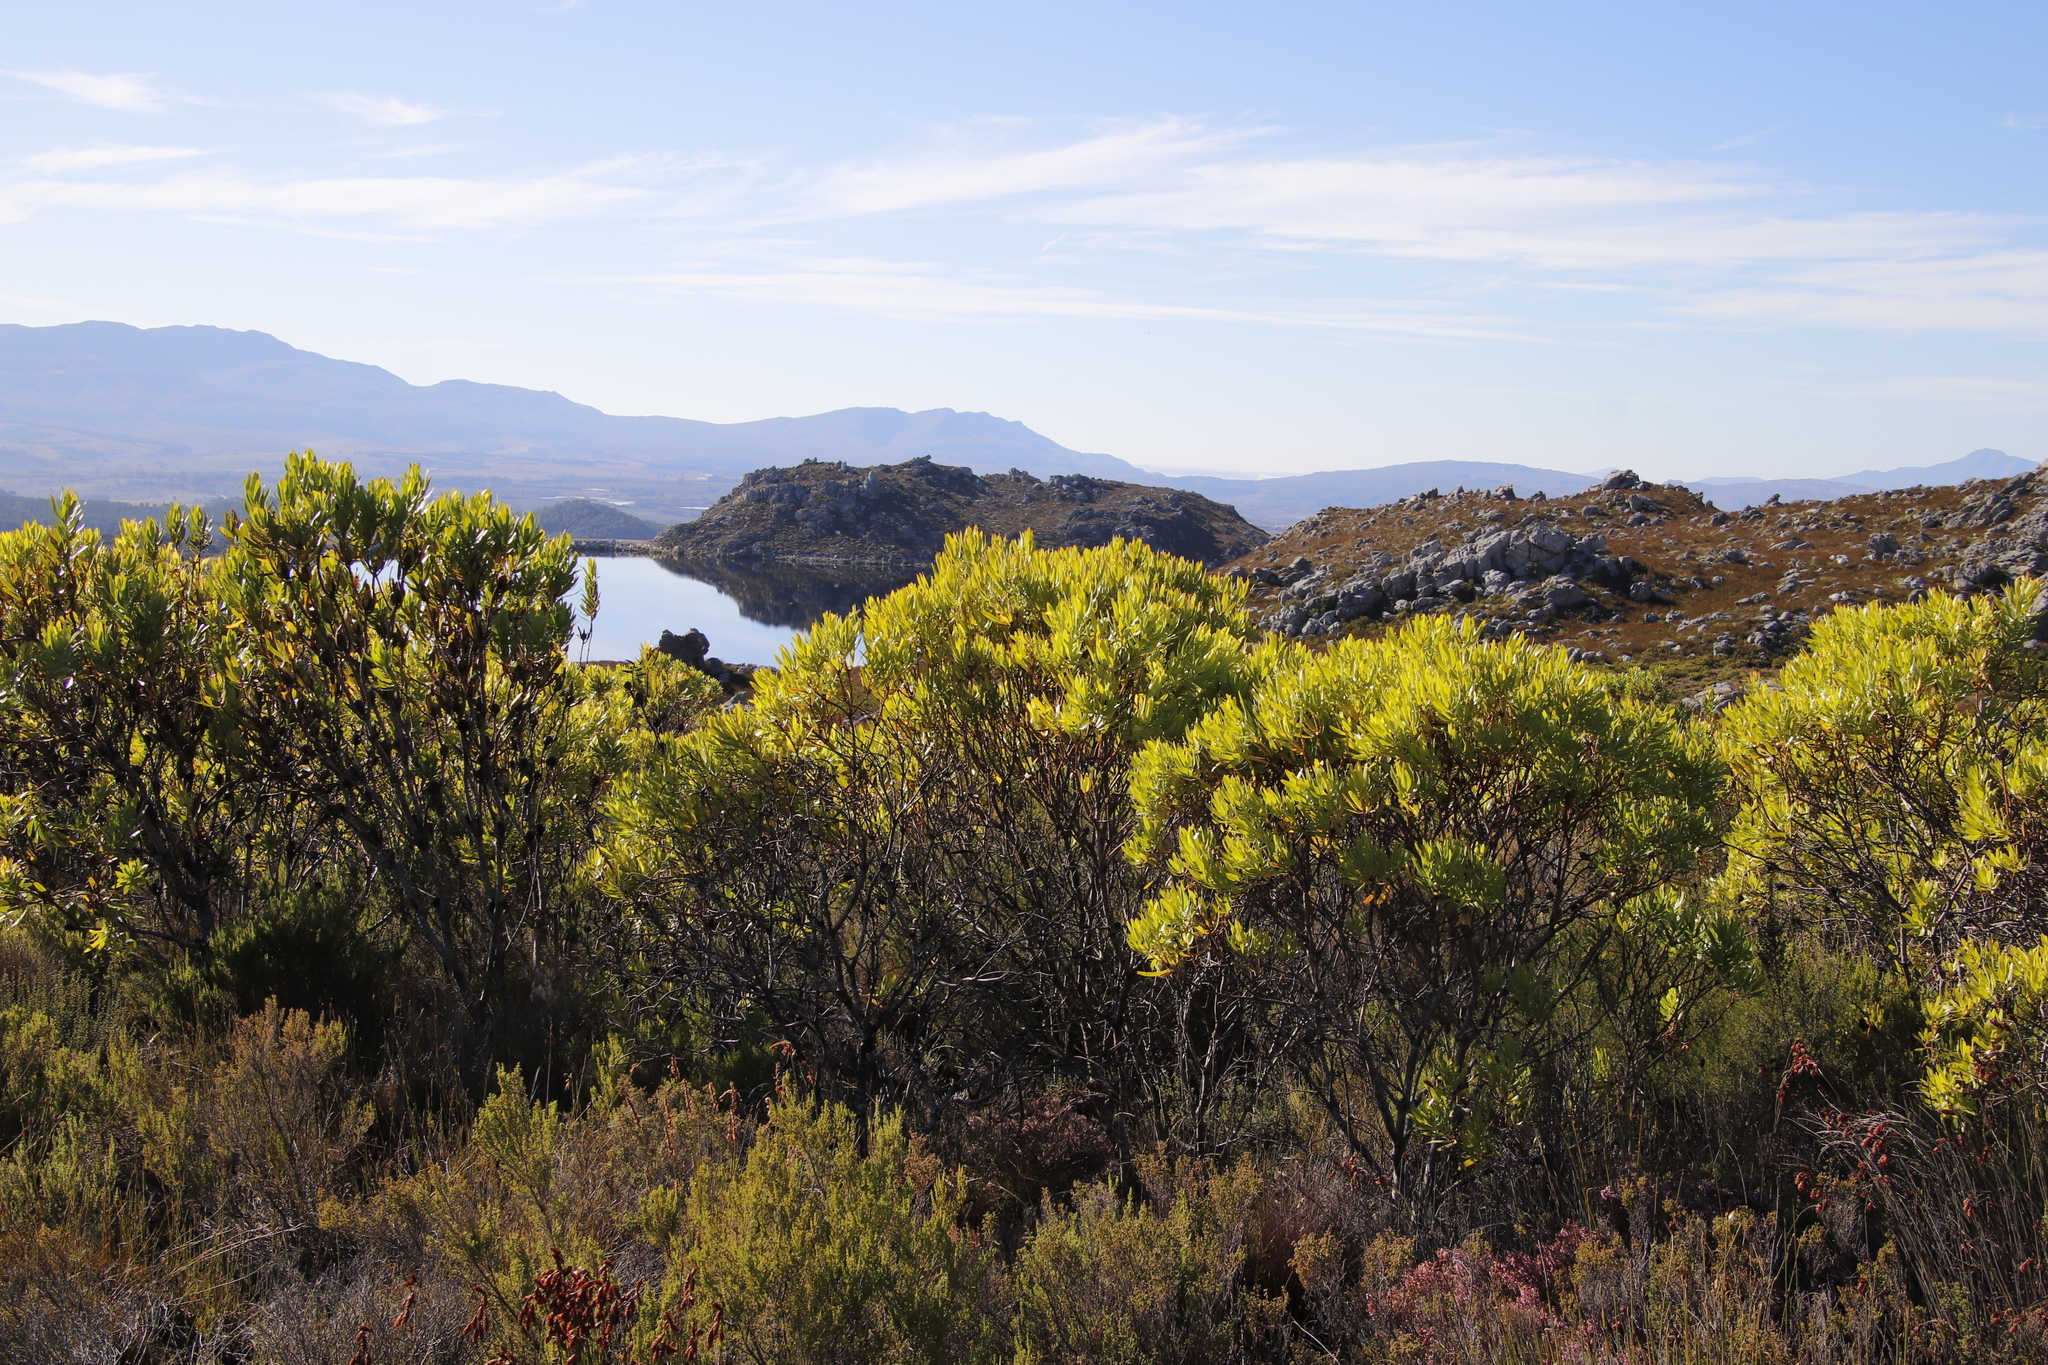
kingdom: Plantae
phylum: Tracheophyta
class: Magnoliopsida
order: Proteales
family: Proteaceae
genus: Leucadendron
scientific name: Leucadendron microcephalum
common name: Oilbract conebush
